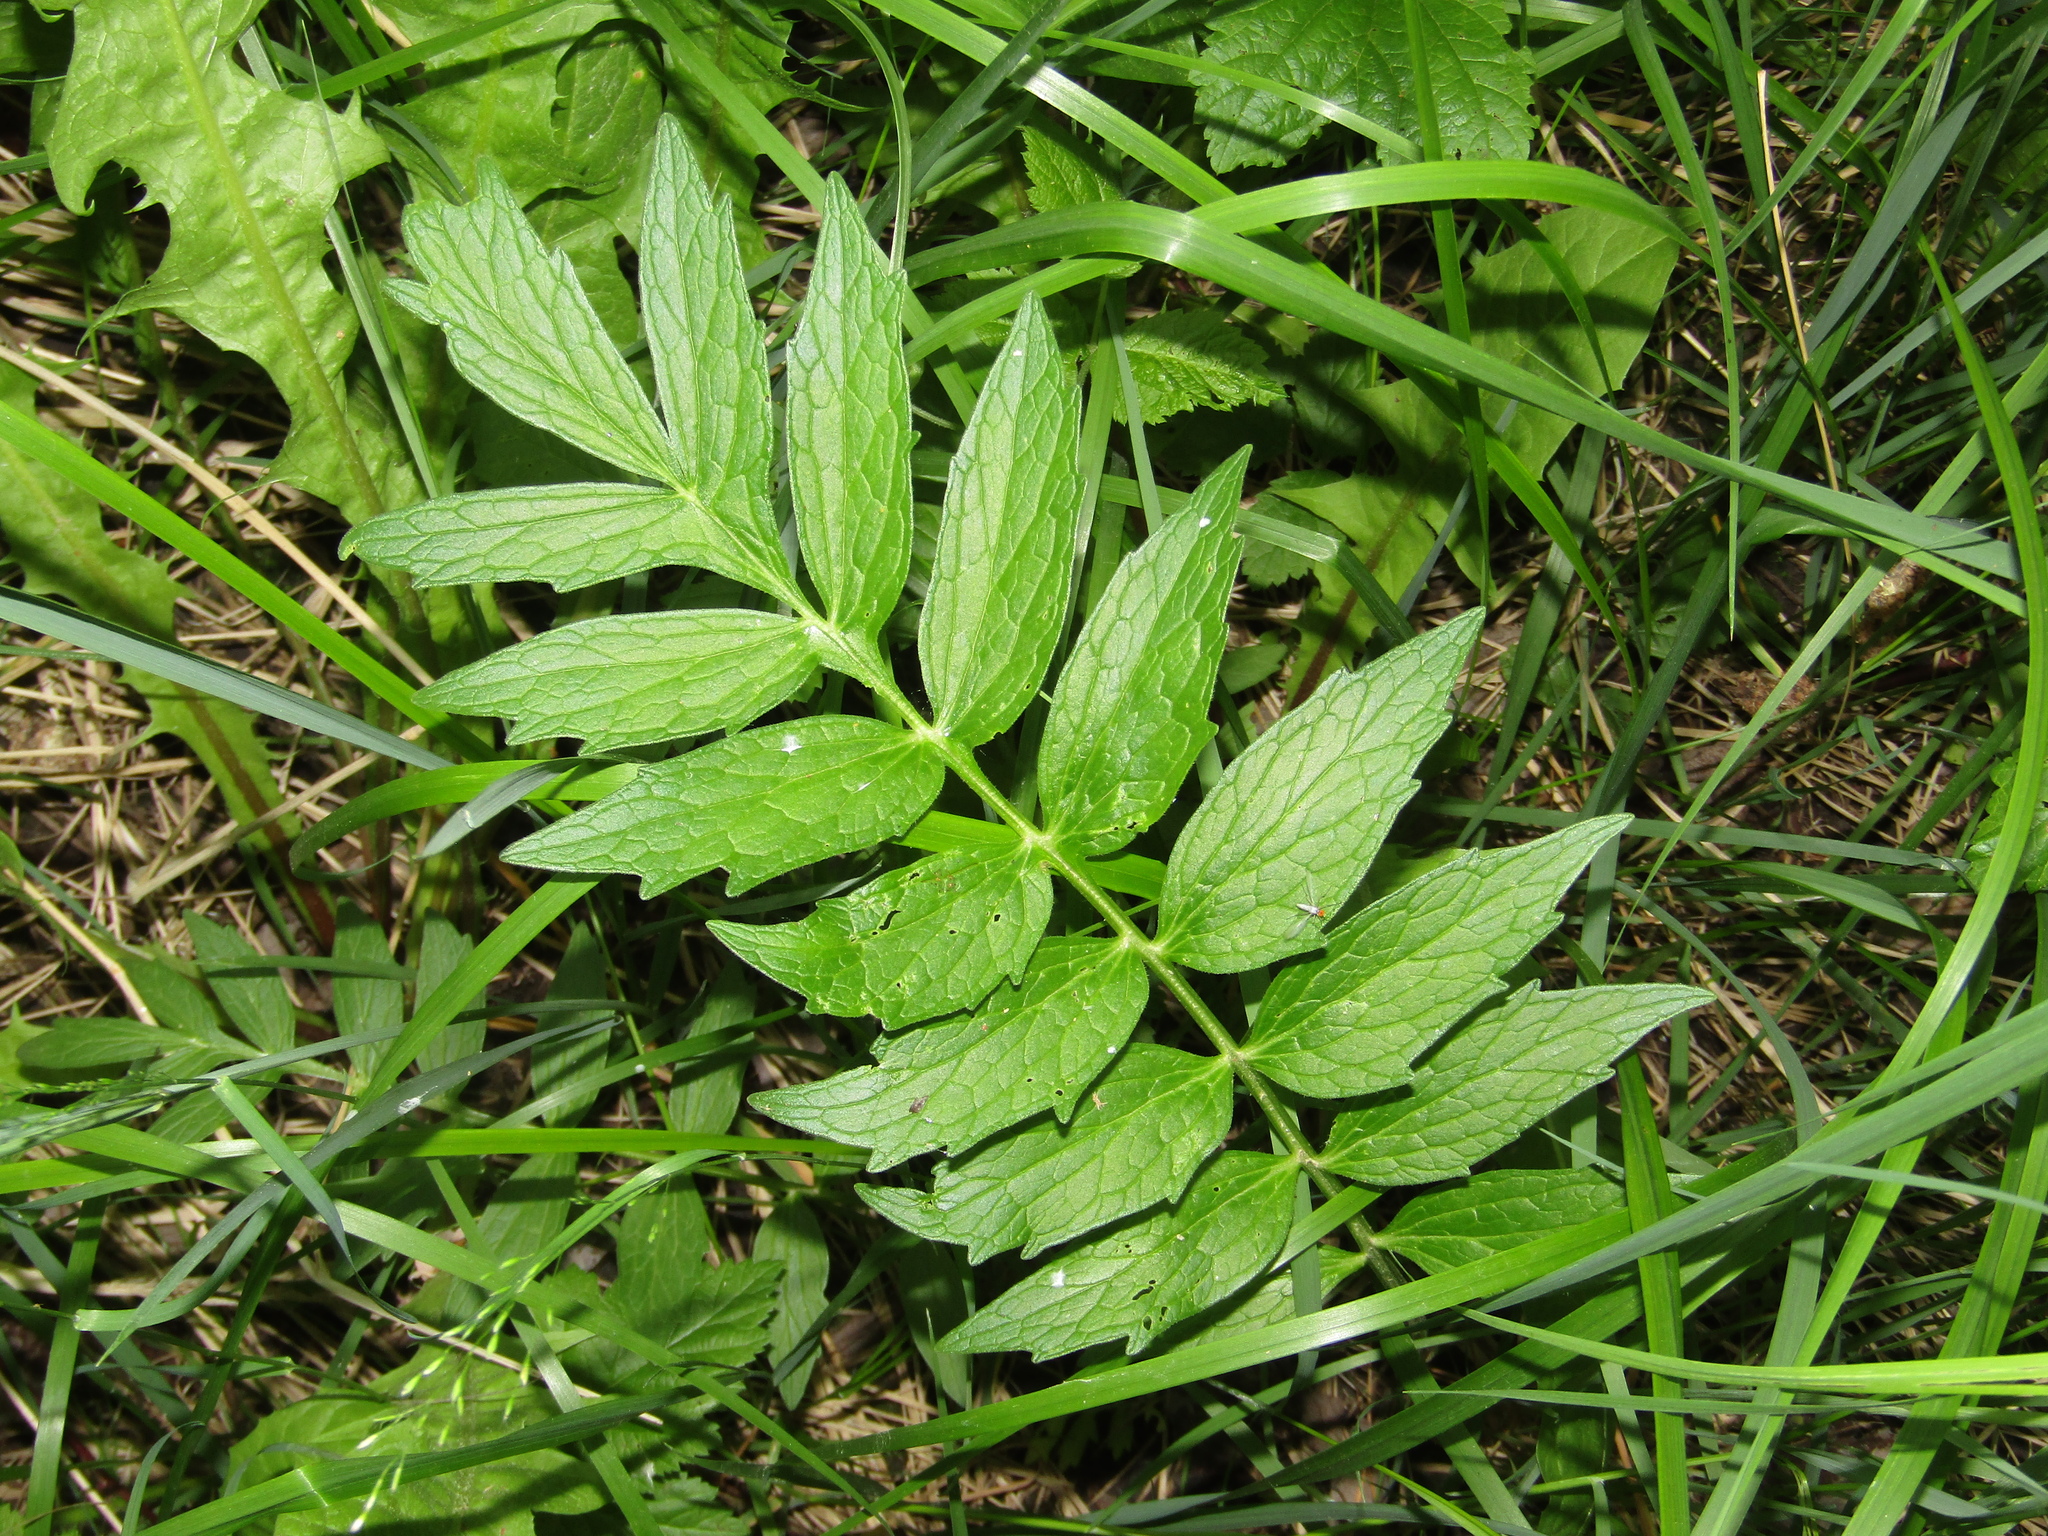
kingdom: Plantae
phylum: Tracheophyta
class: Magnoliopsida
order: Dipsacales
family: Caprifoliaceae
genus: Valeriana
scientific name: Valeriana officinalis
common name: Common valerian
